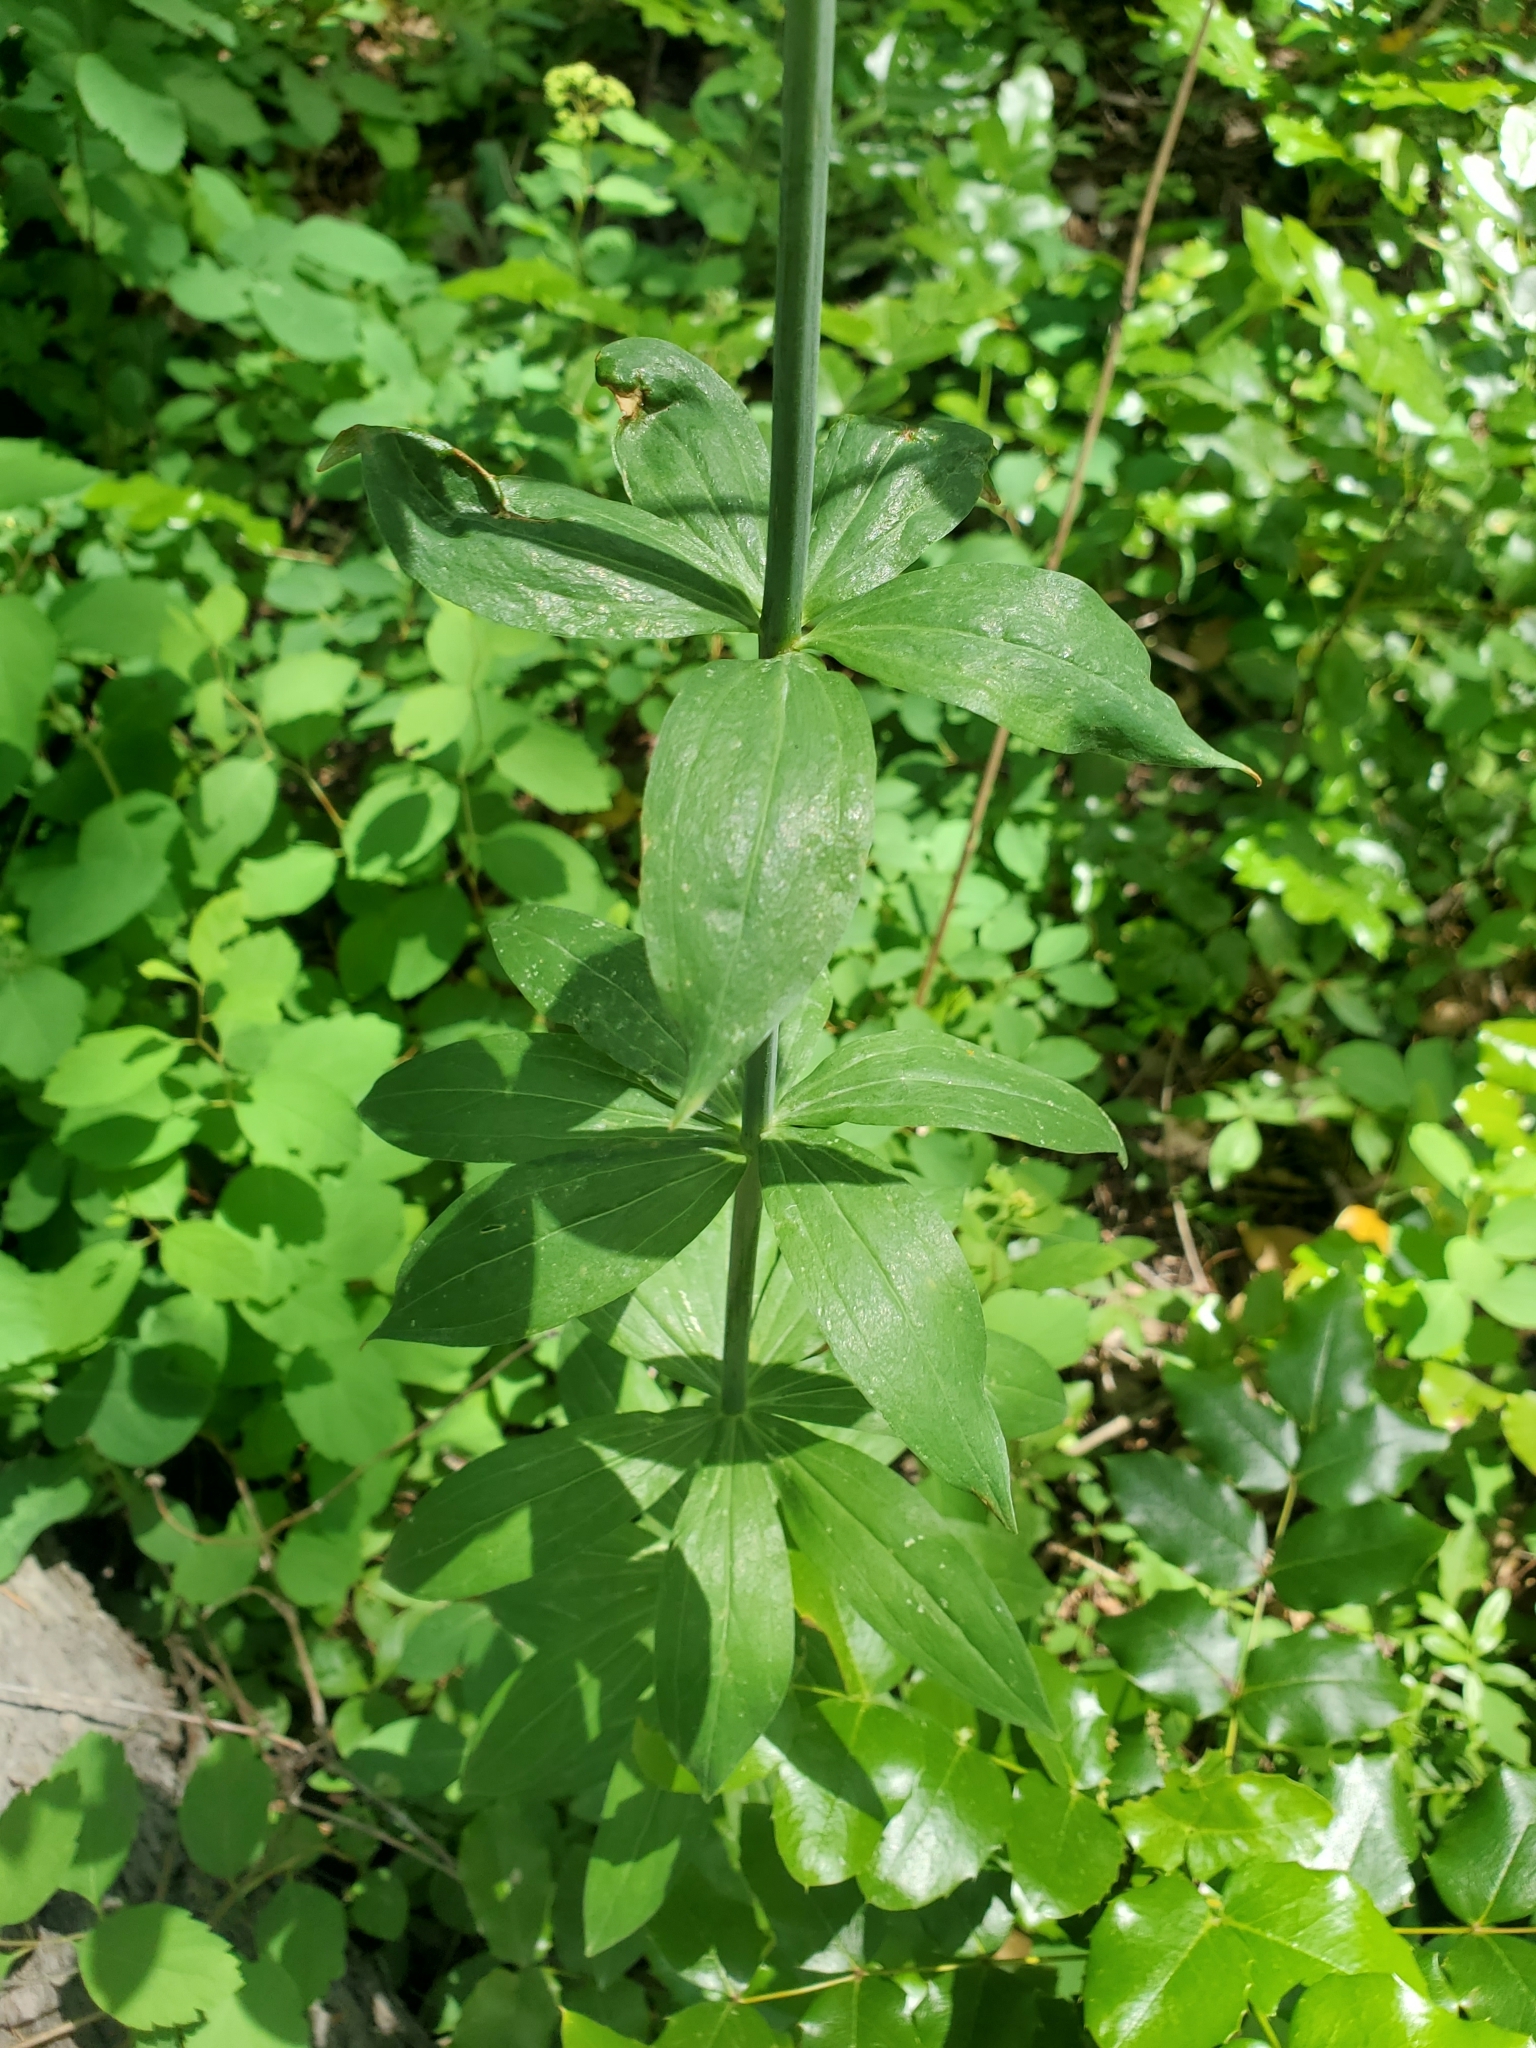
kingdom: Plantae
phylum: Tracheophyta
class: Liliopsida
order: Liliales
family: Liliaceae
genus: Lilium
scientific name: Lilium columbianum
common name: Columbia lily
